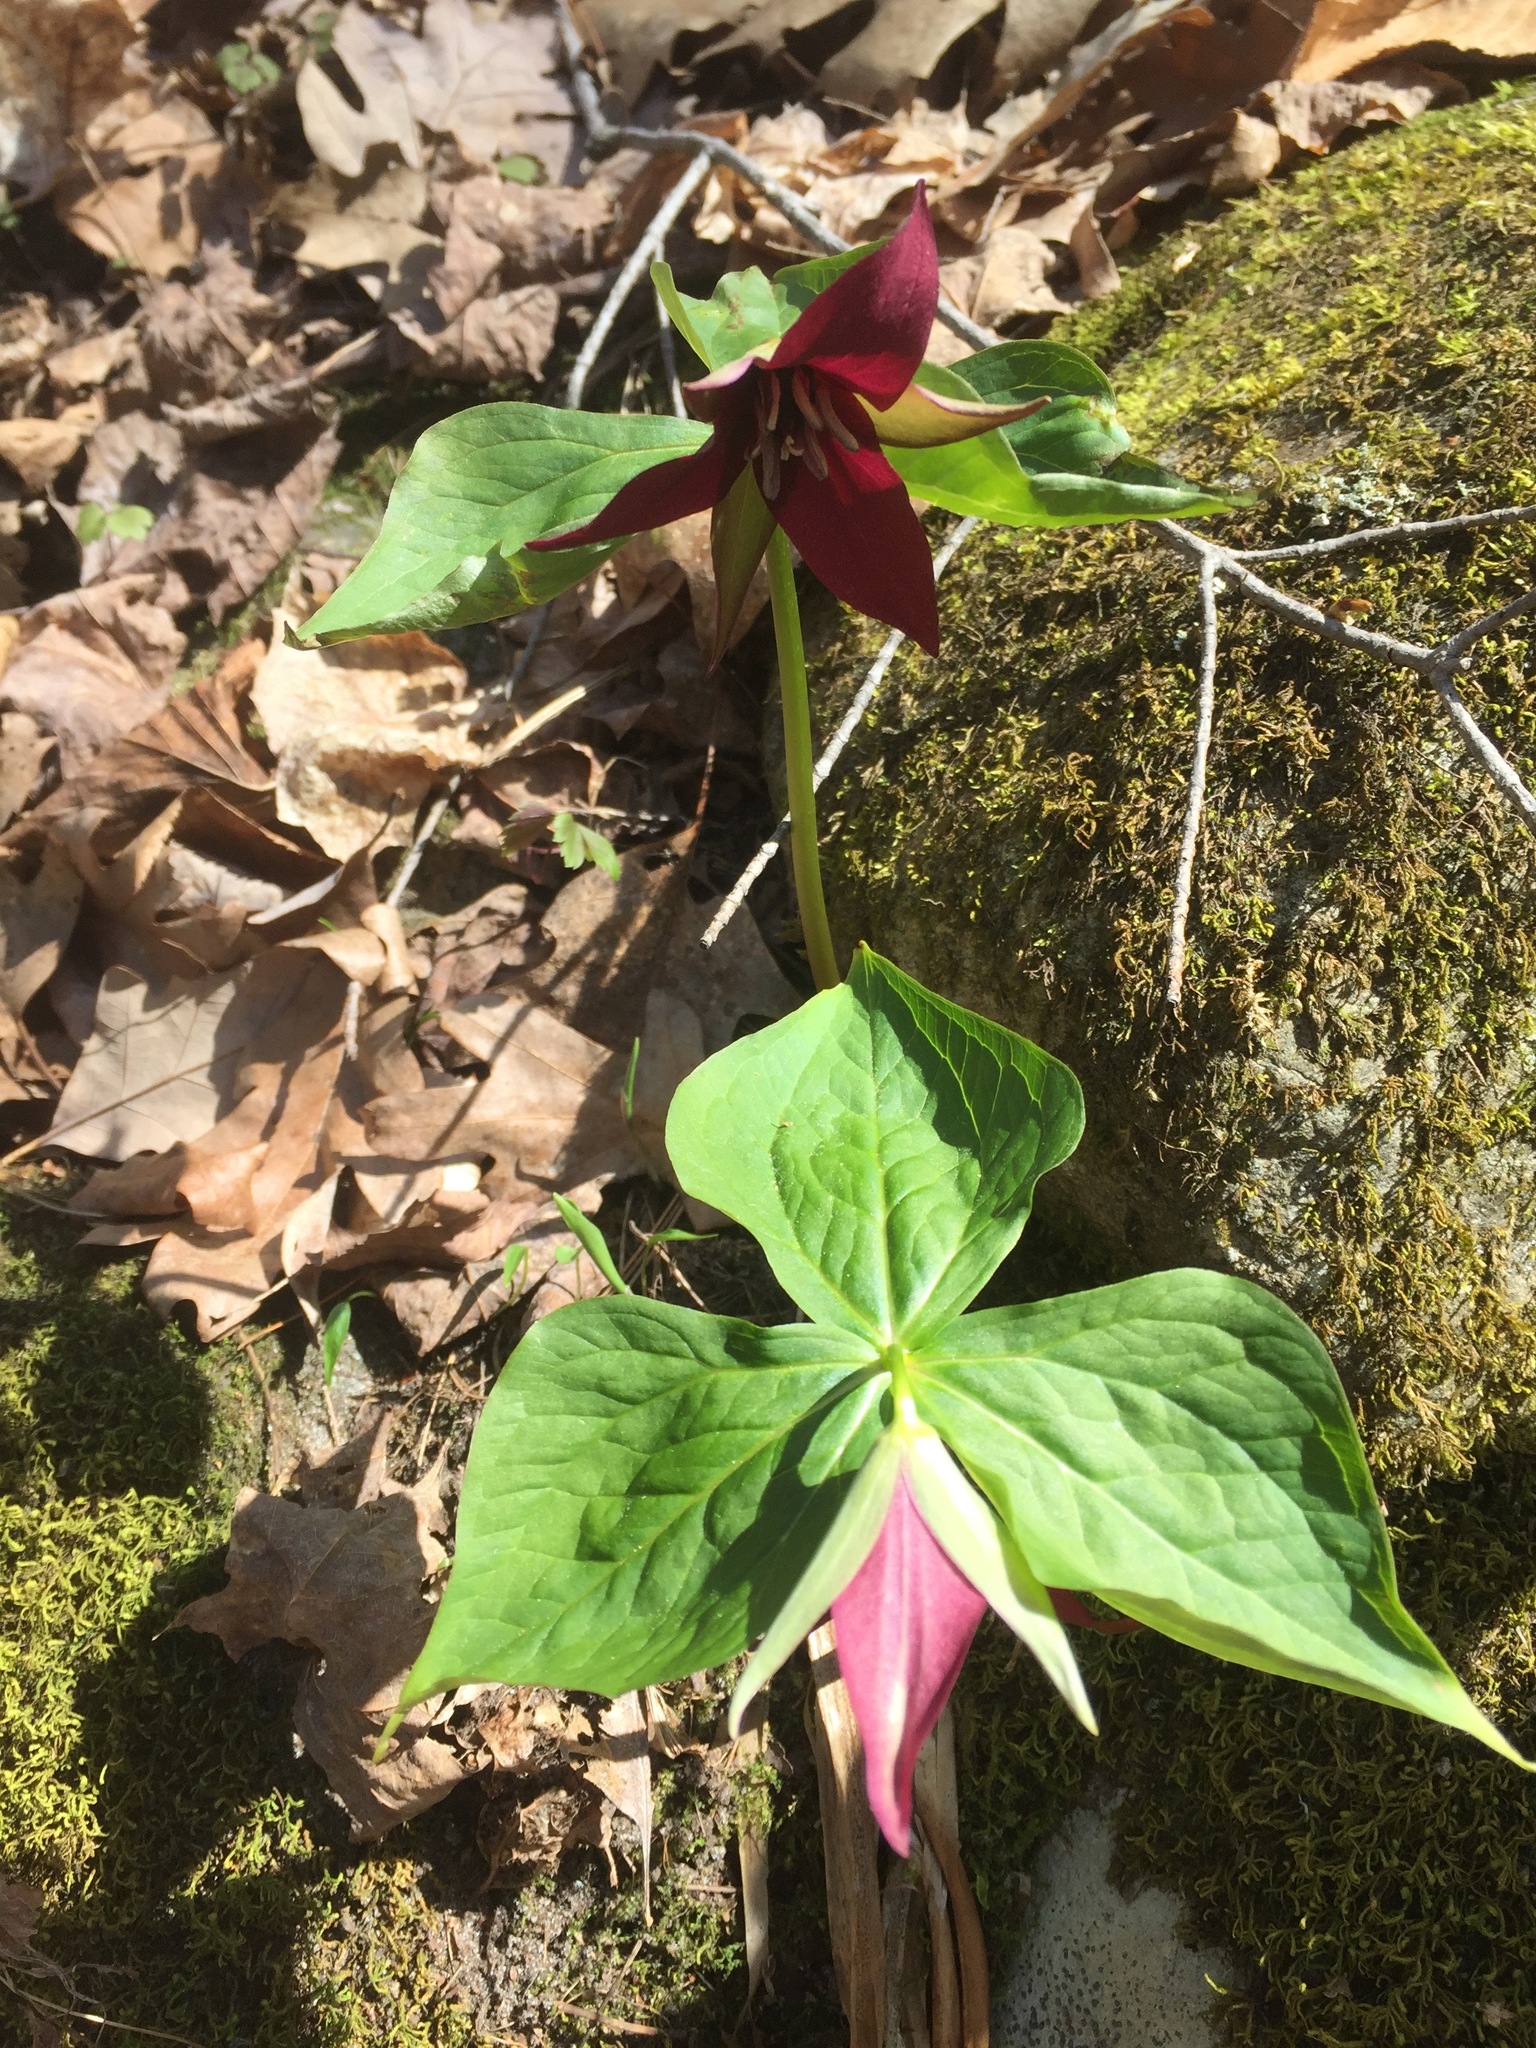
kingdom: Plantae
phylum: Tracheophyta
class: Liliopsida
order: Liliales
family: Melanthiaceae
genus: Trillium
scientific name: Trillium erectum
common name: Purple trillium
